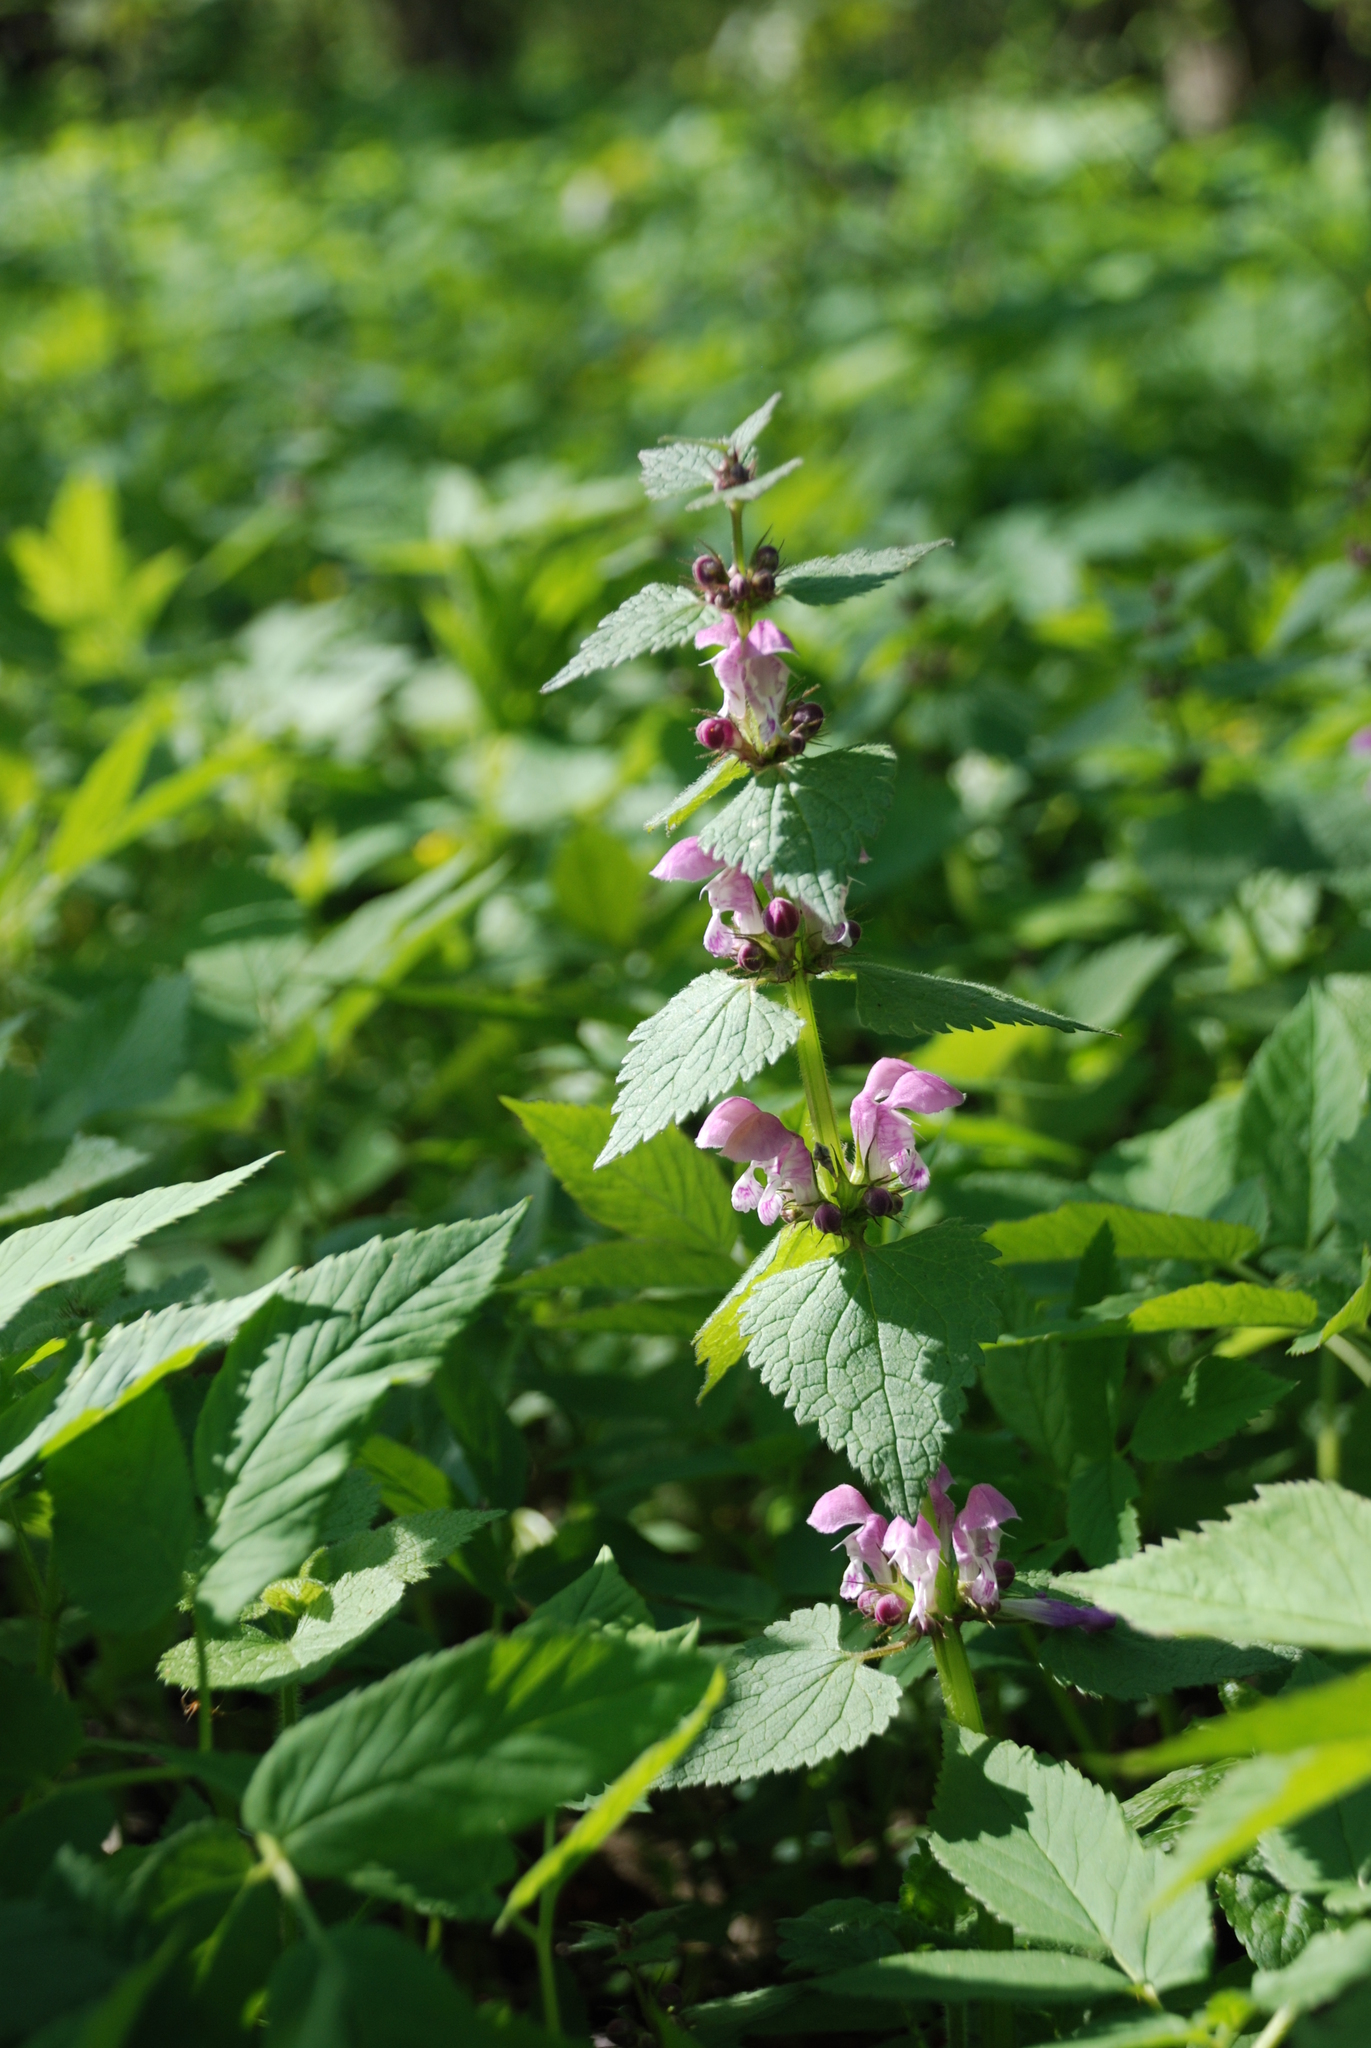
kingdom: Plantae
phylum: Tracheophyta
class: Magnoliopsida
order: Lamiales
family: Lamiaceae
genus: Lamium
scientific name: Lamium maculatum
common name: Spotted dead-nettle
